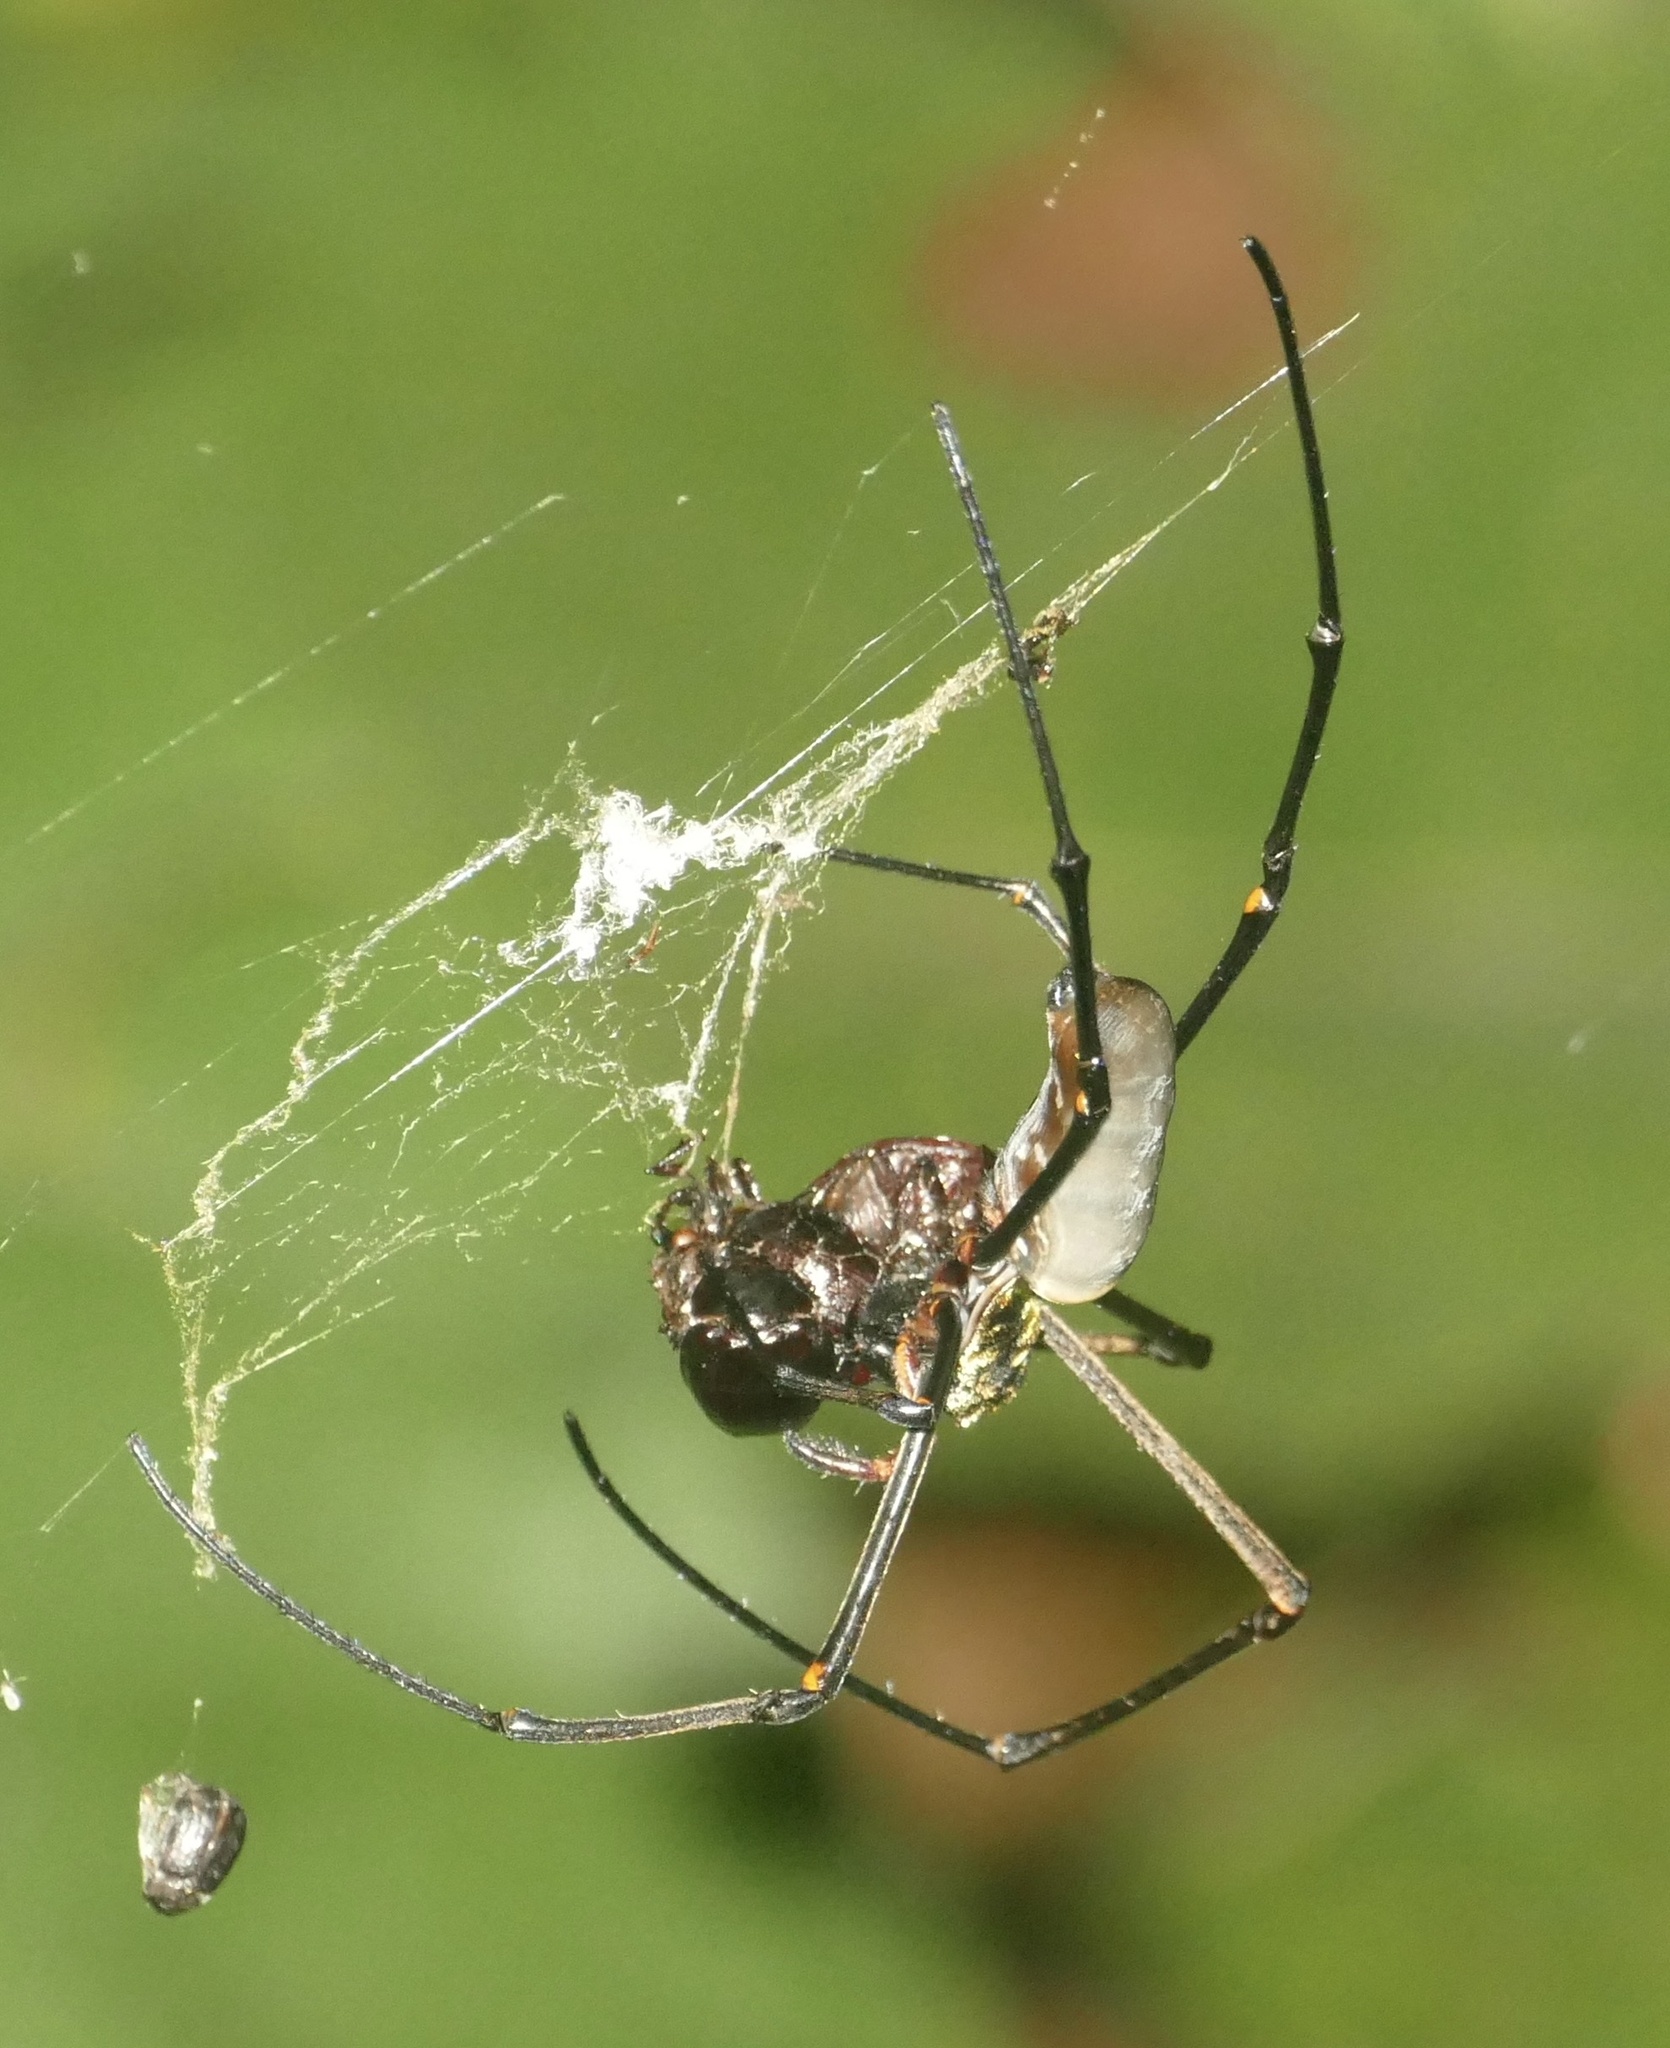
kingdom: Animalia
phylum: Arthropoda
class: Arachnida
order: Araneae
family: Araneidae
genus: Nephila
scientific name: Nephila pilipes
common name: Giant golden orb weaver
